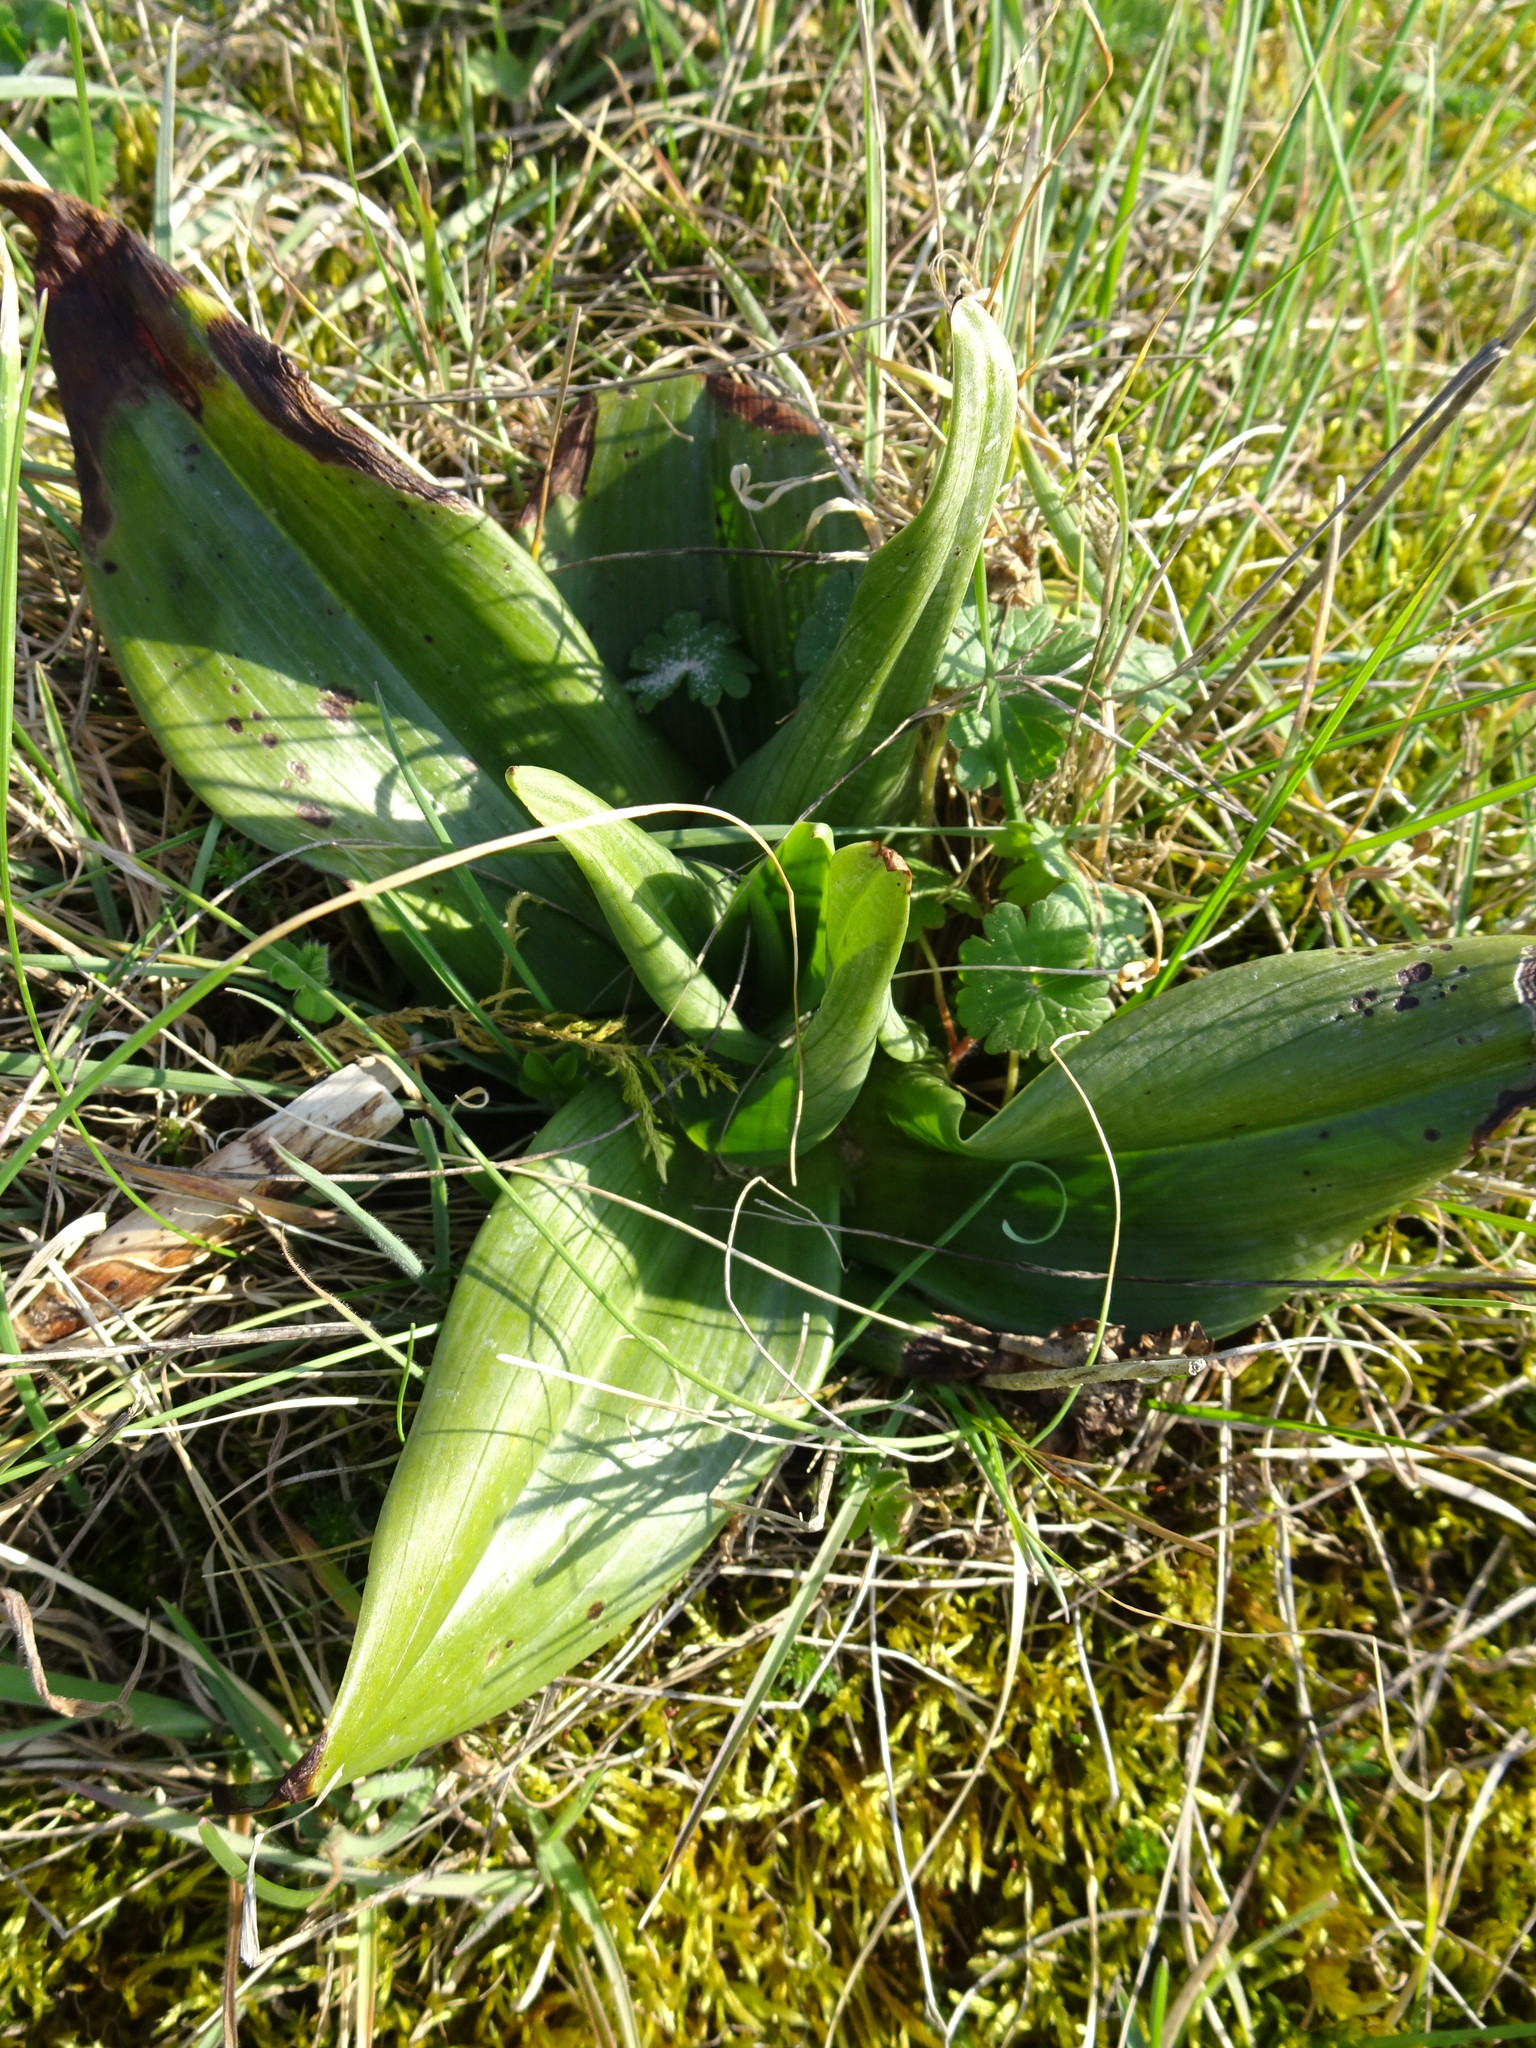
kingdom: Plantae
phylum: Tracheophyta
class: Liliopsida
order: Asparagales
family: Orchidaceae
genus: Himantoglossum
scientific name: Himantoglossum hircinum
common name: Lizard orchid
